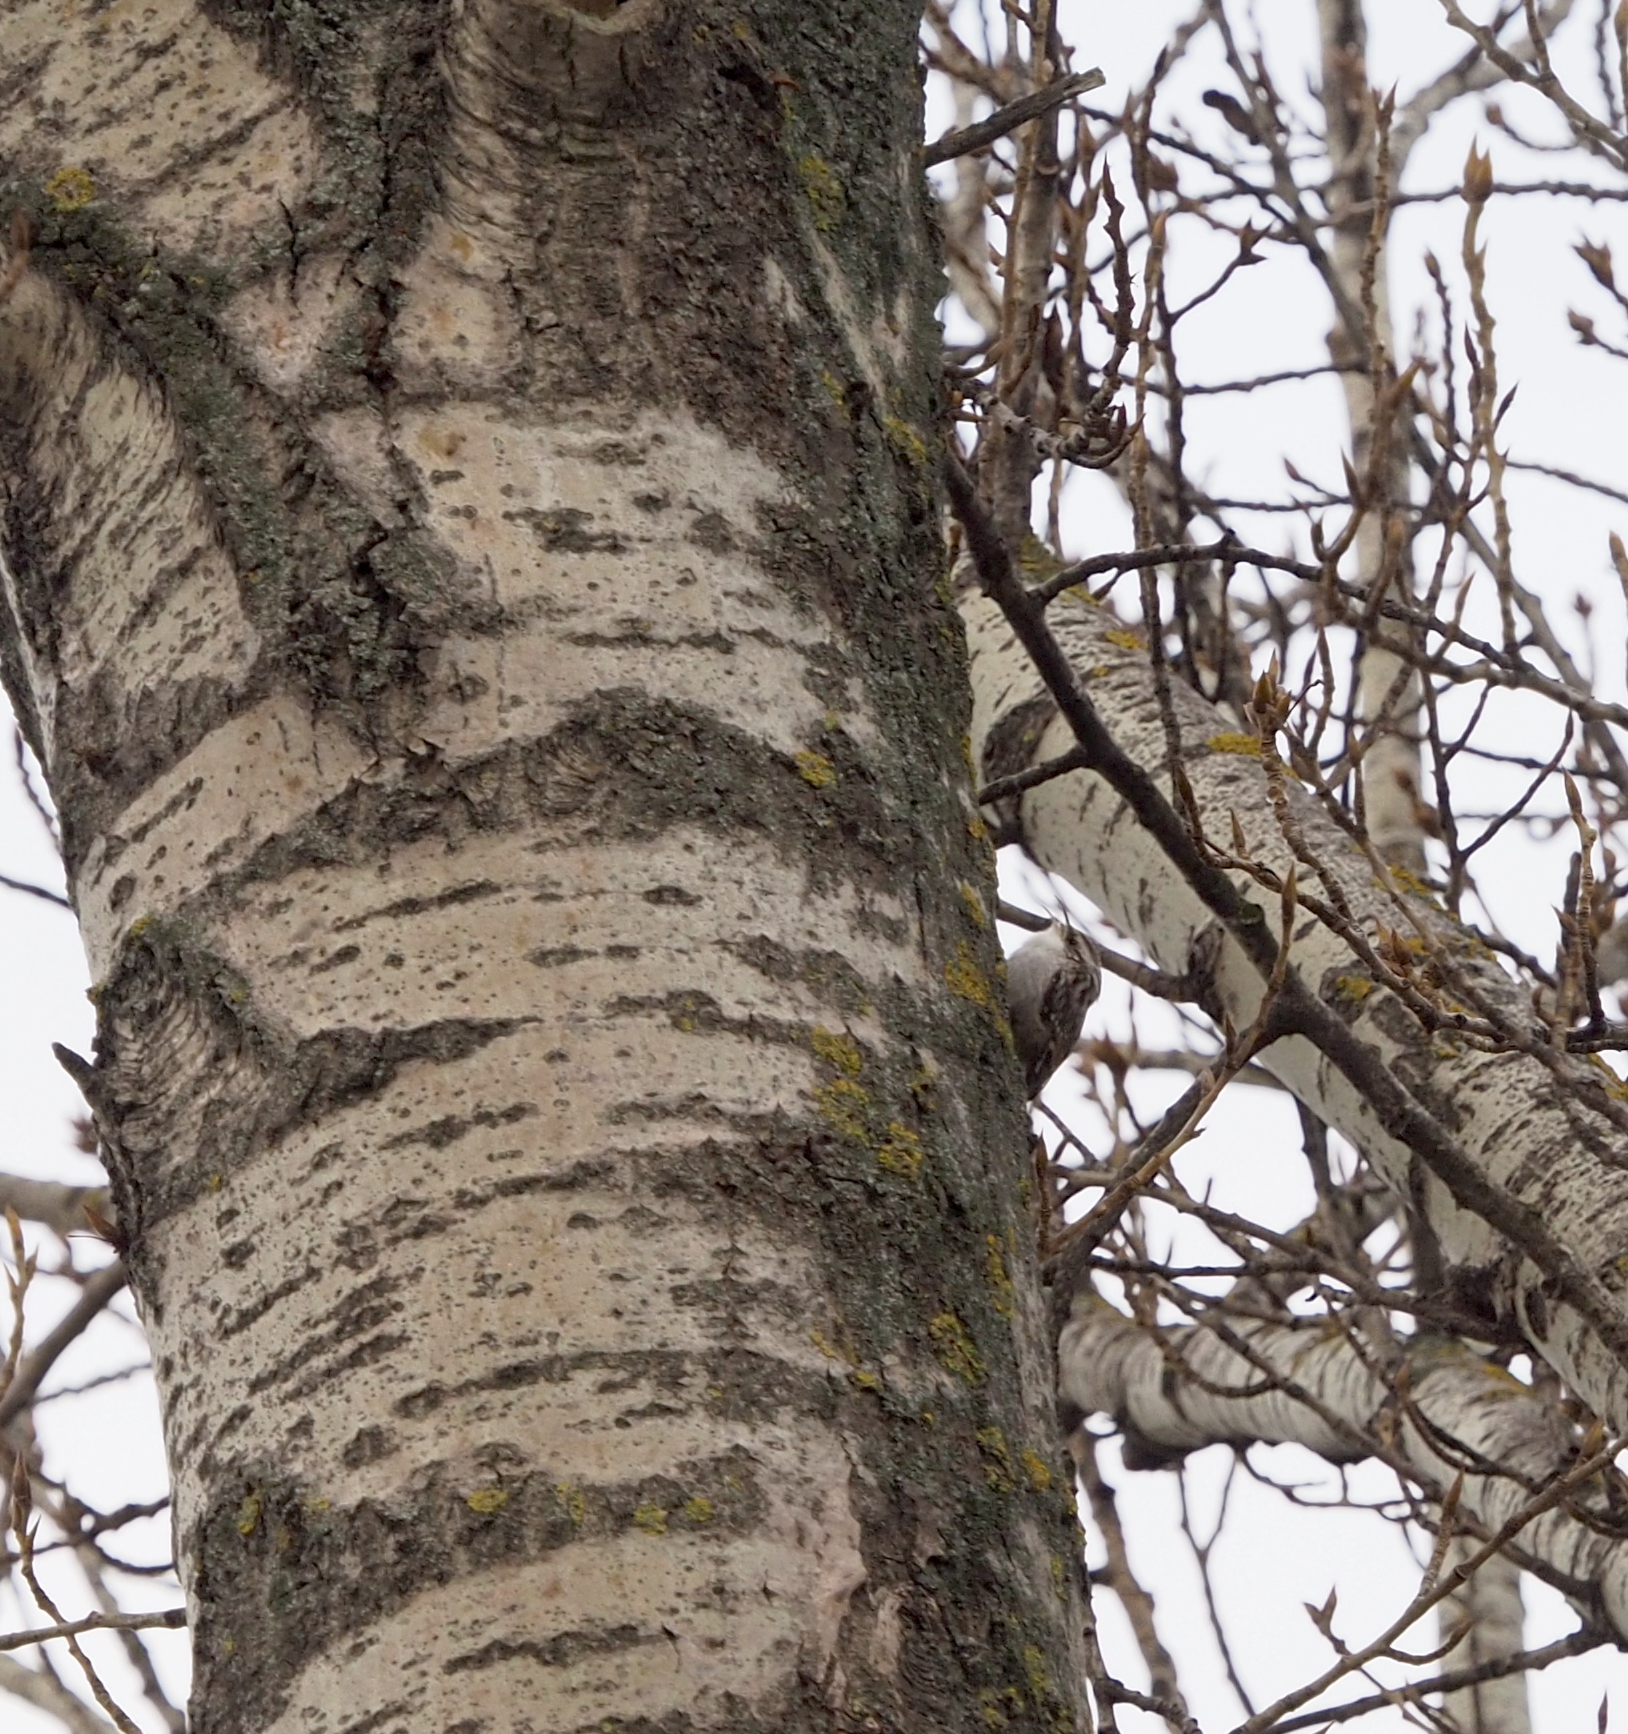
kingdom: Animalia
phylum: Chordata
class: Aves
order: Passeriformes
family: Certhiidae
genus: Certhia
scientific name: Certhia brachydactyla
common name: Short-toed treecreeper
